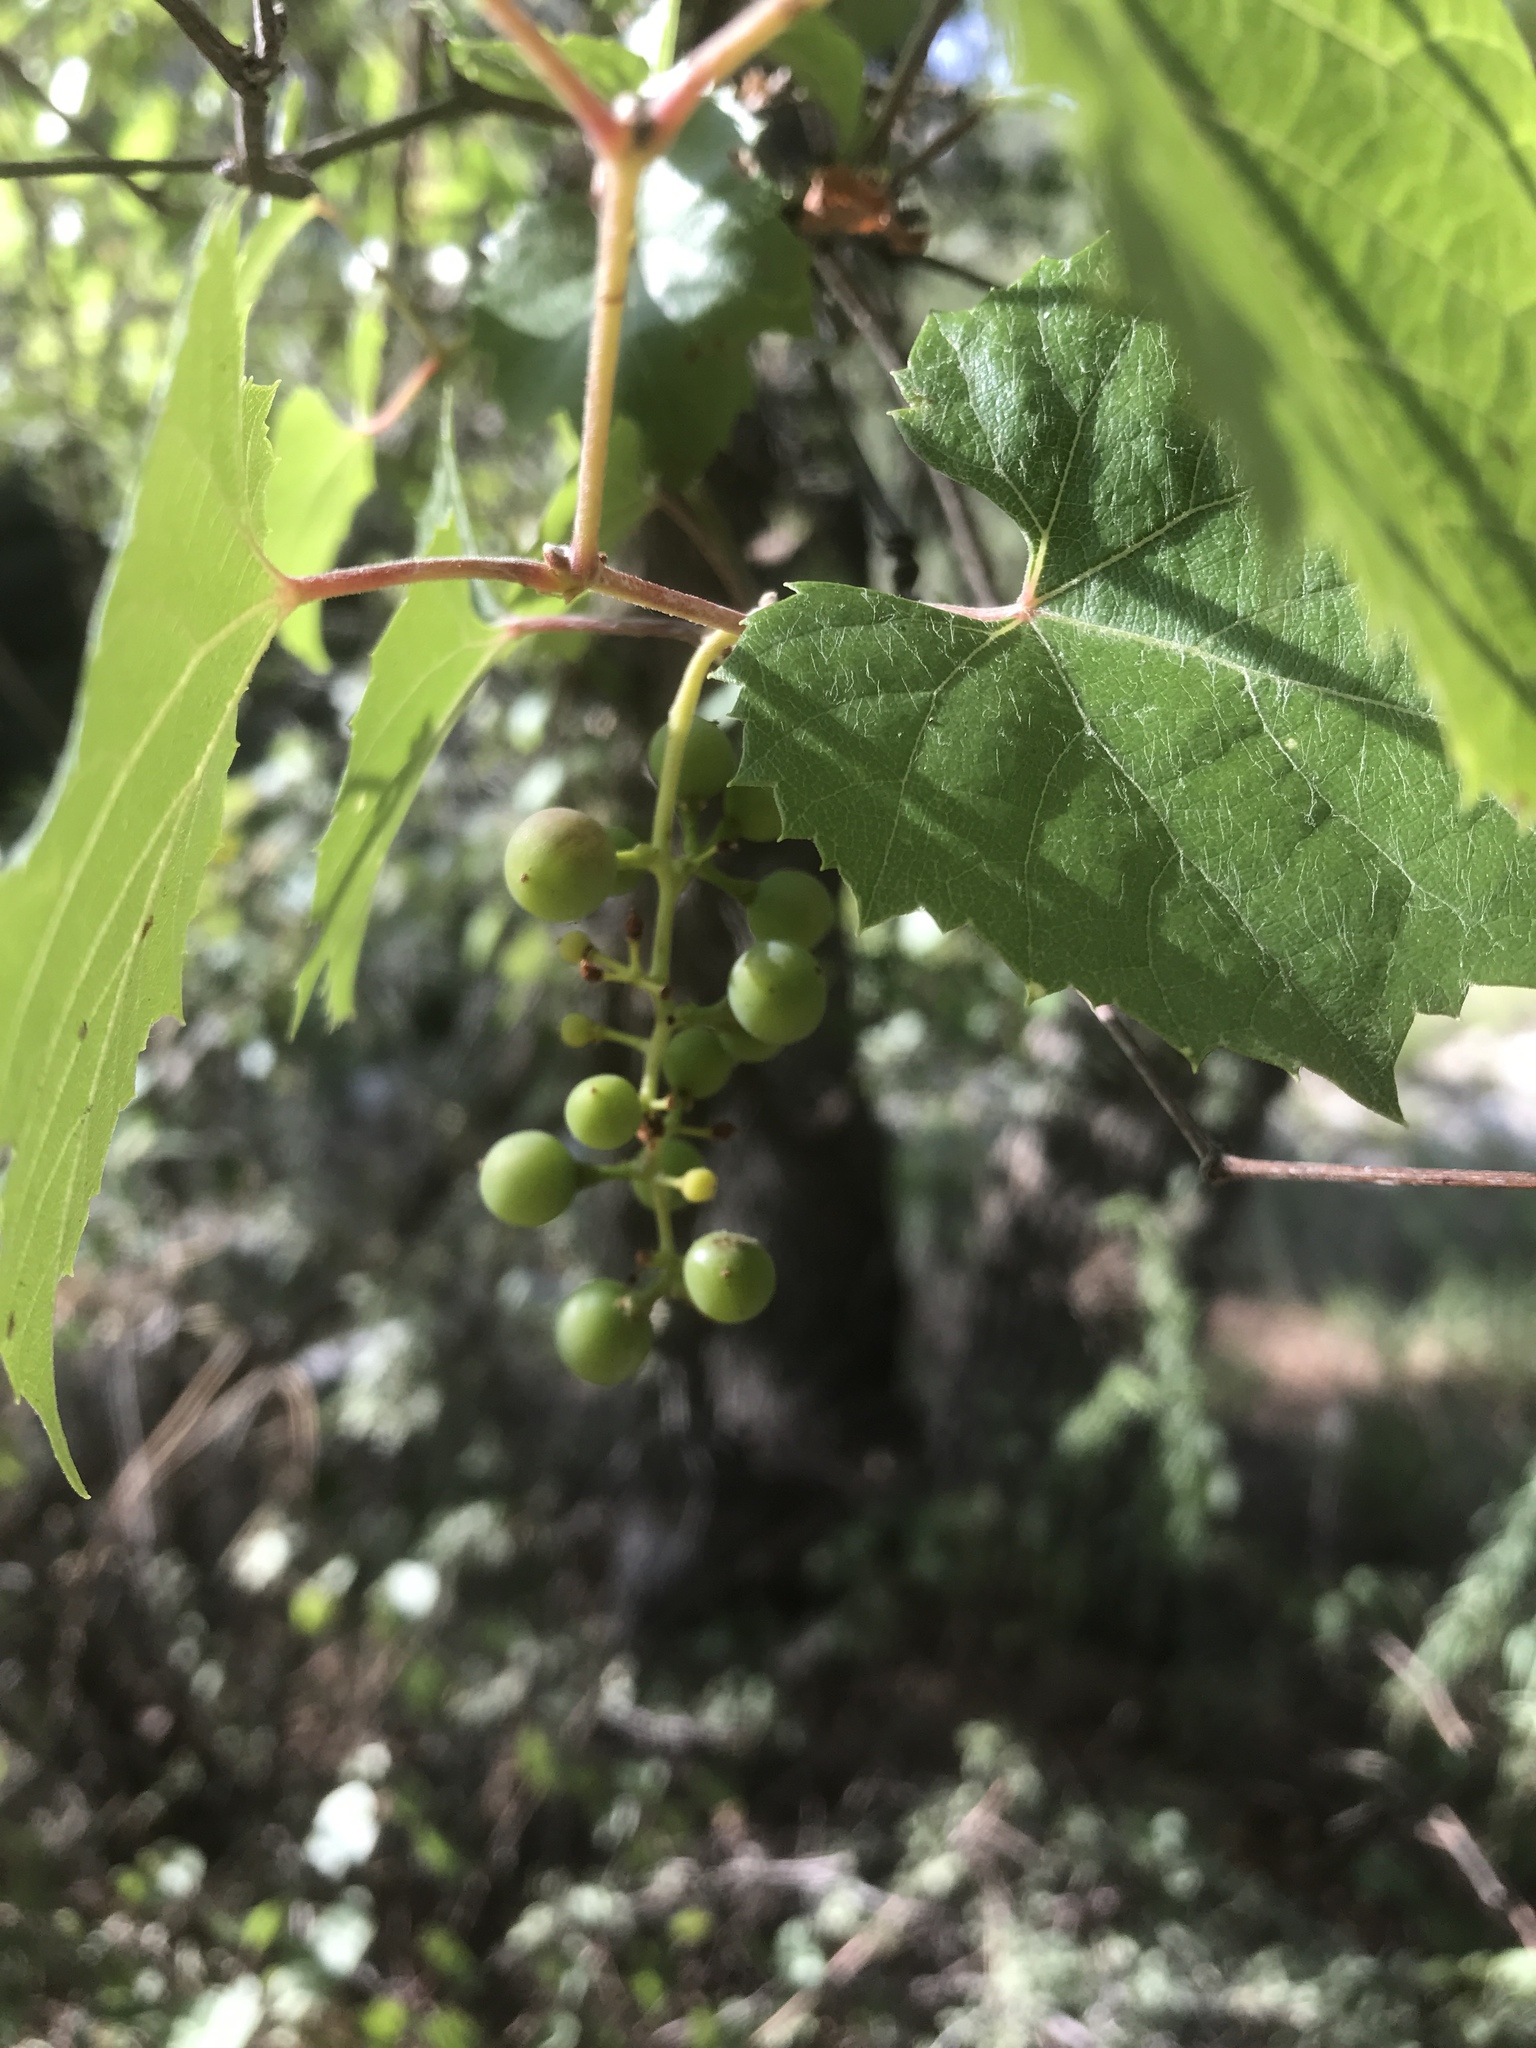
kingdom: Plantae
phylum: Tracheophyta
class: Magnoliopsida
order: Vitales
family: Vitaceae
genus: Vitis
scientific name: Vitis arizonica
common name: Canyon grape
